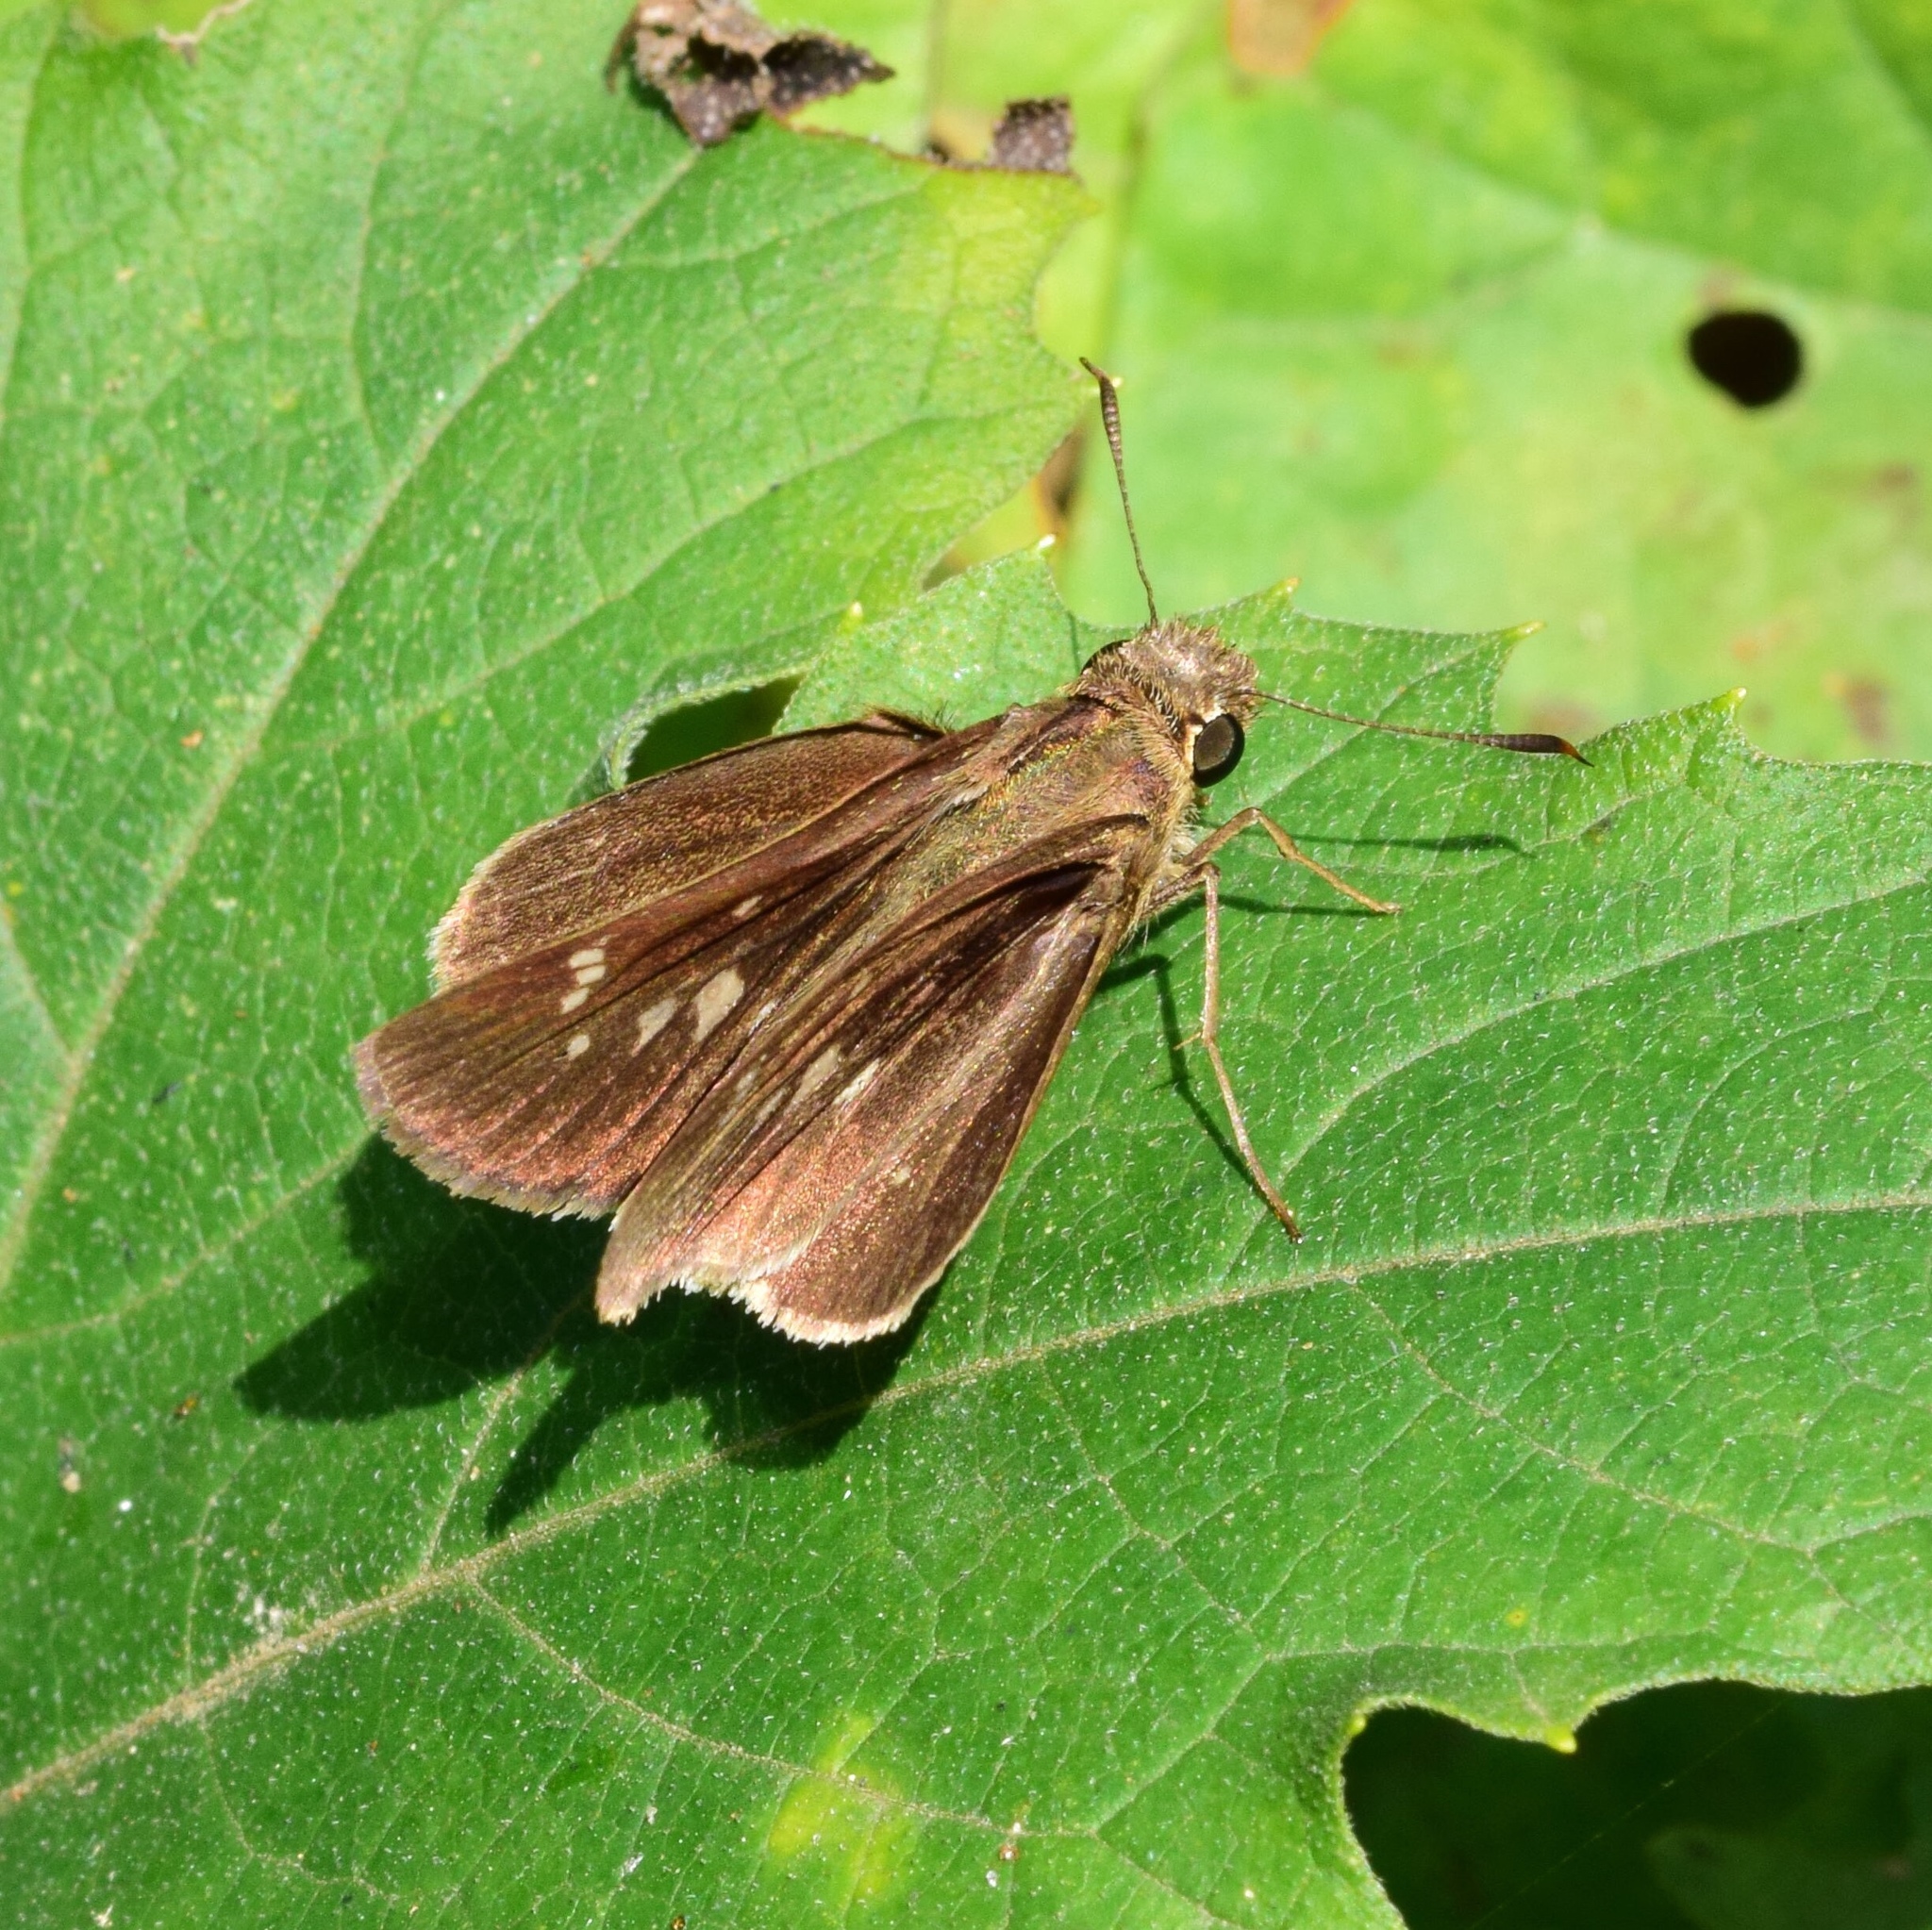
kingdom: Animalia
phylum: Arthropoda
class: Insecta
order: Lepidoptera
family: Hesperiidae
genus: Baoris
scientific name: Baoris fatuellus
